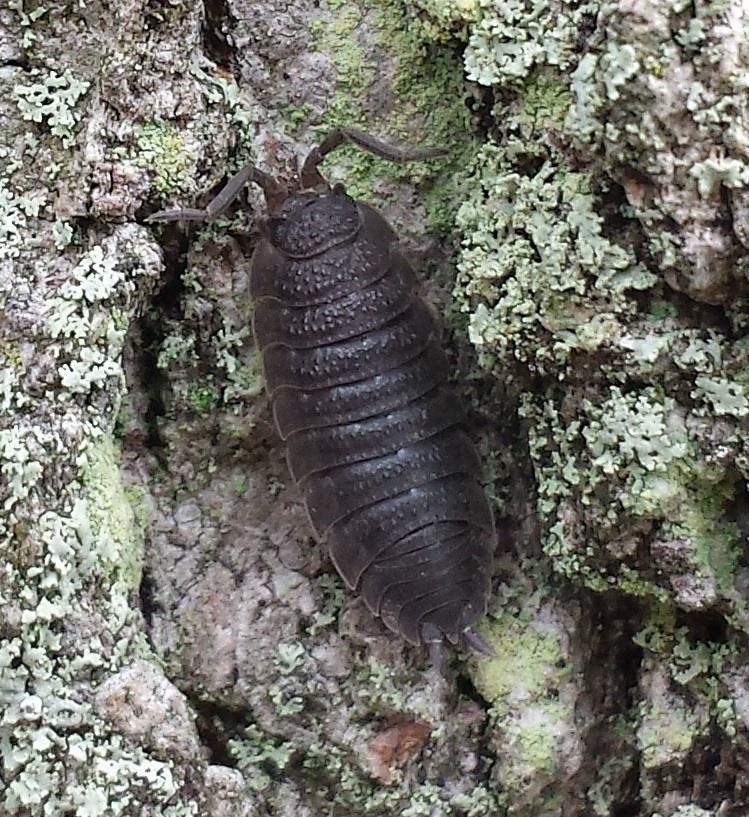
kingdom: Animalia
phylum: Arthropoda
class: Malacostraca
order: Isopoda
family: Porcellionidae
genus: Porcellio
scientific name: Porcellio scaber
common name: Common rough woodlouse
